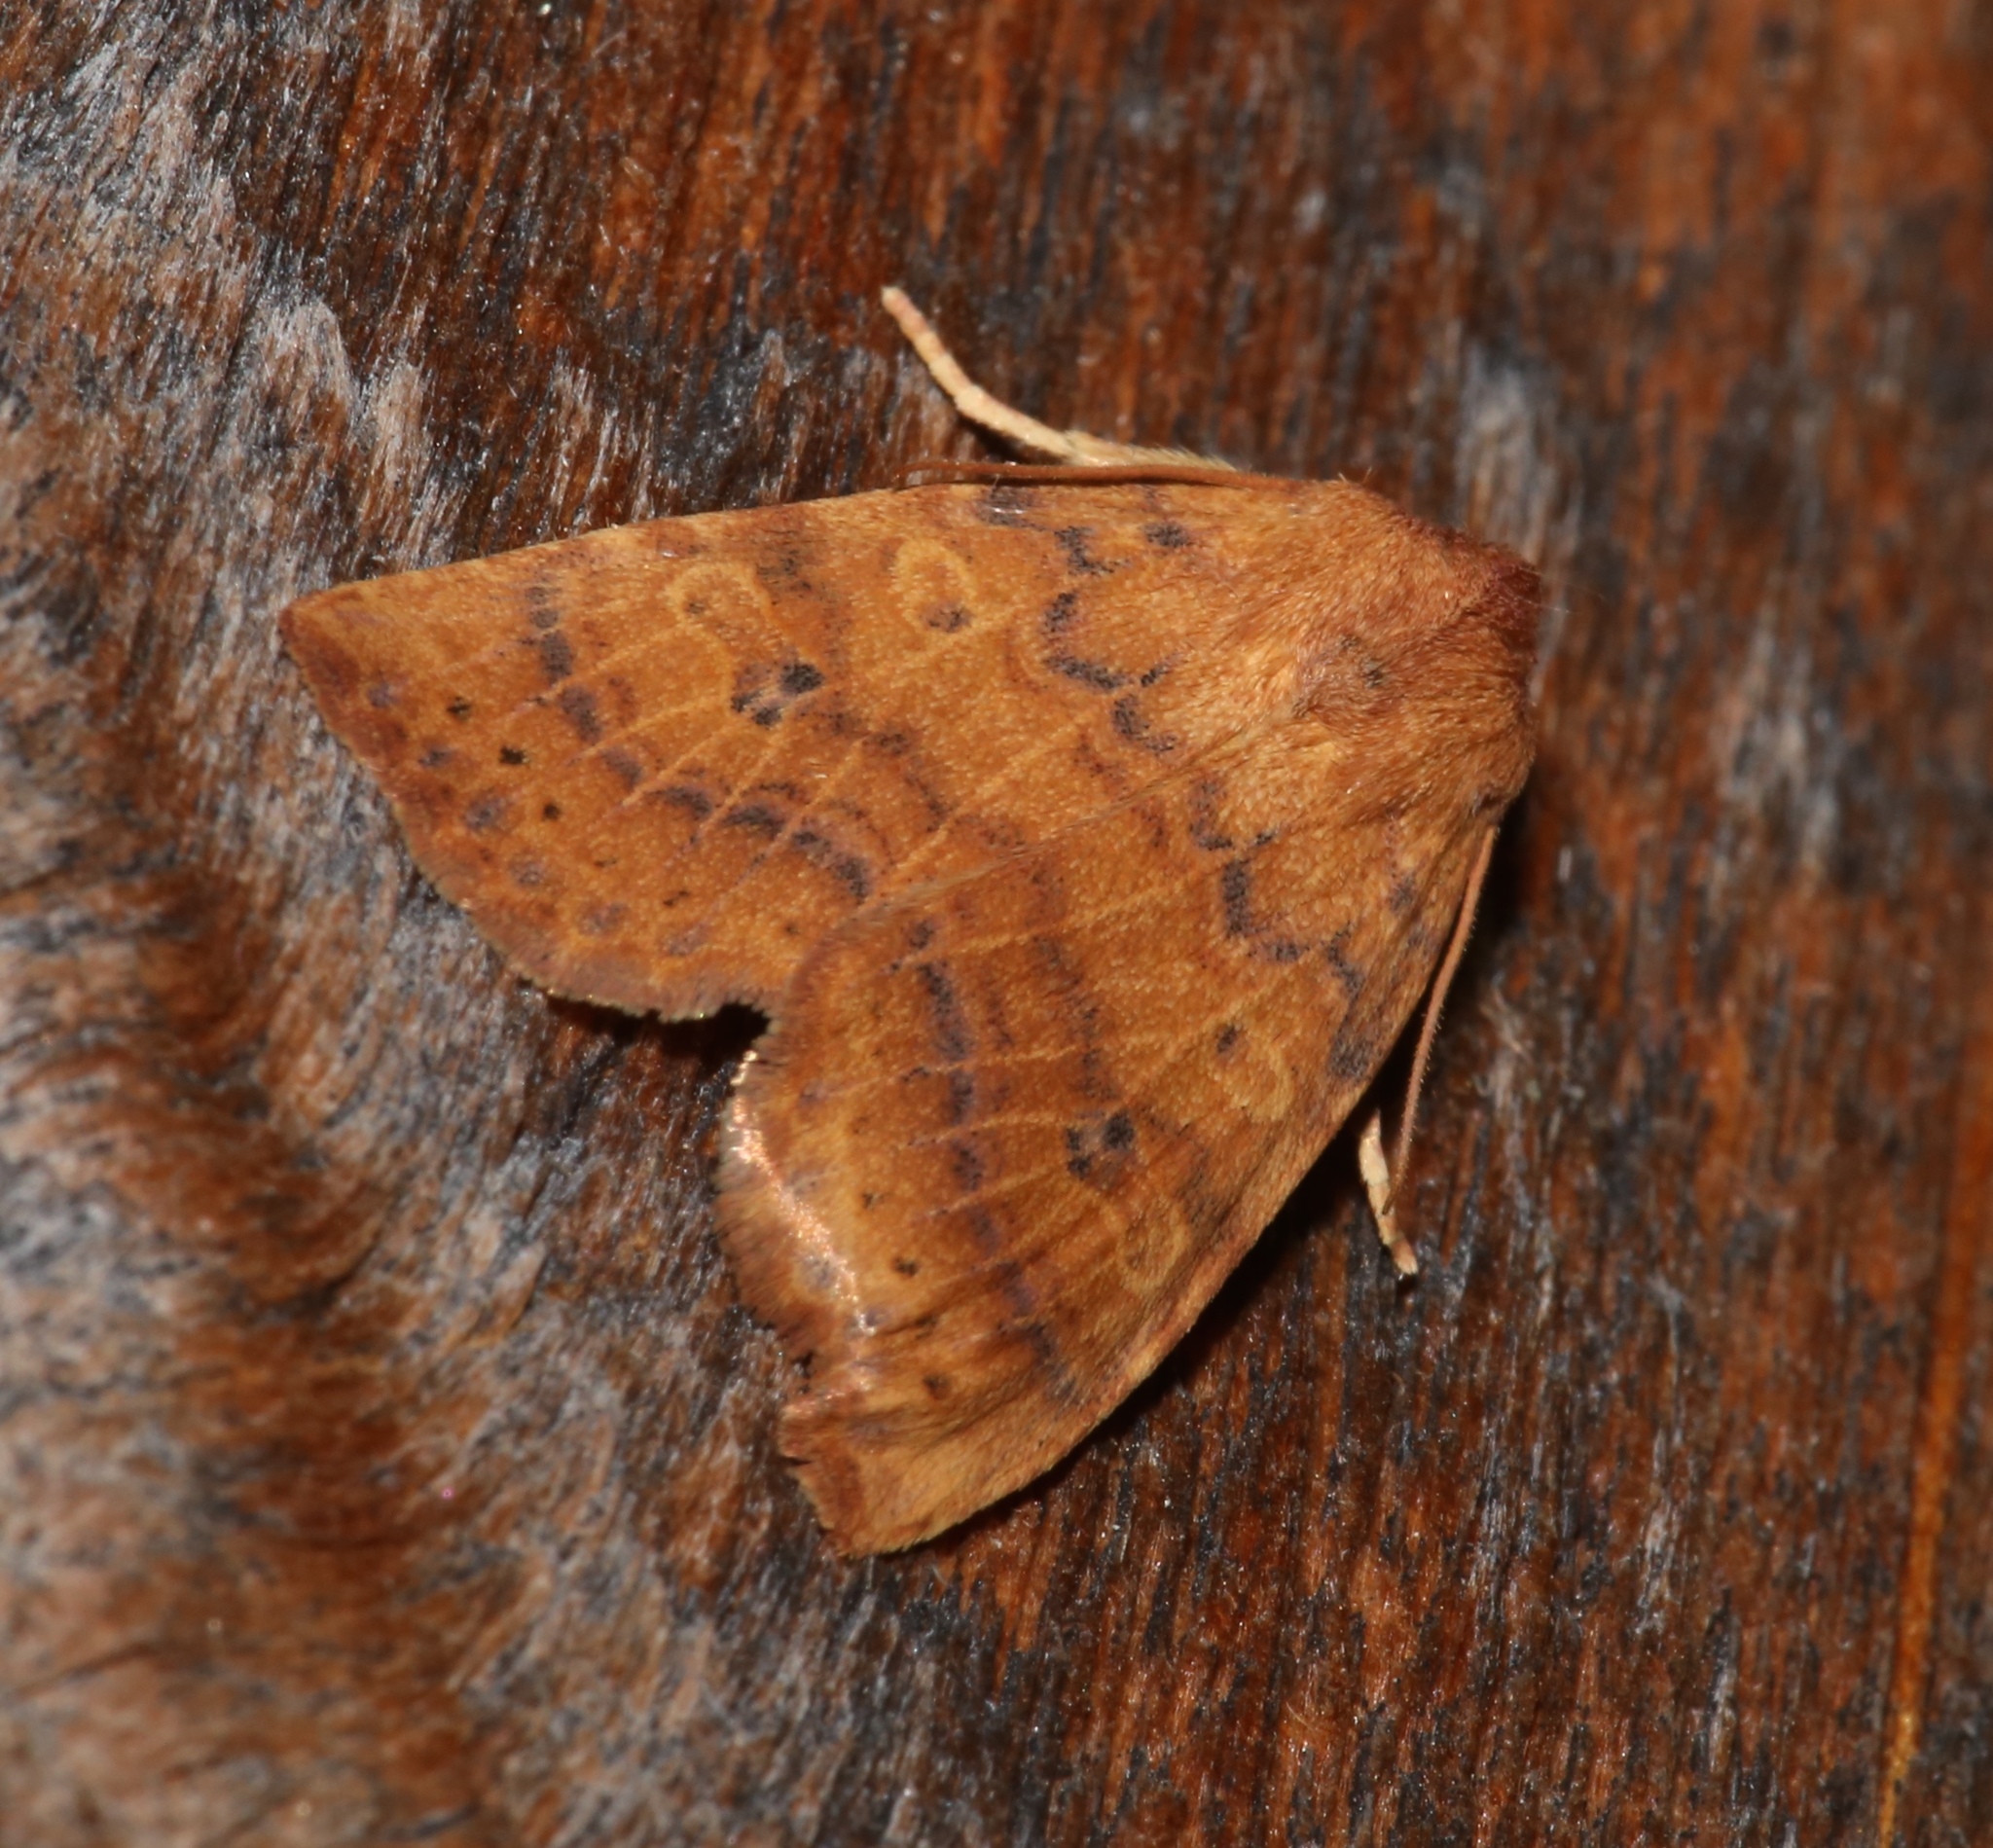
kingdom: Animalia
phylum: Arthropoda
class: Insecta
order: Lepidoptera
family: Noctuidae
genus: Anathix
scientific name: Anathix ralla
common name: Dotted sallow
